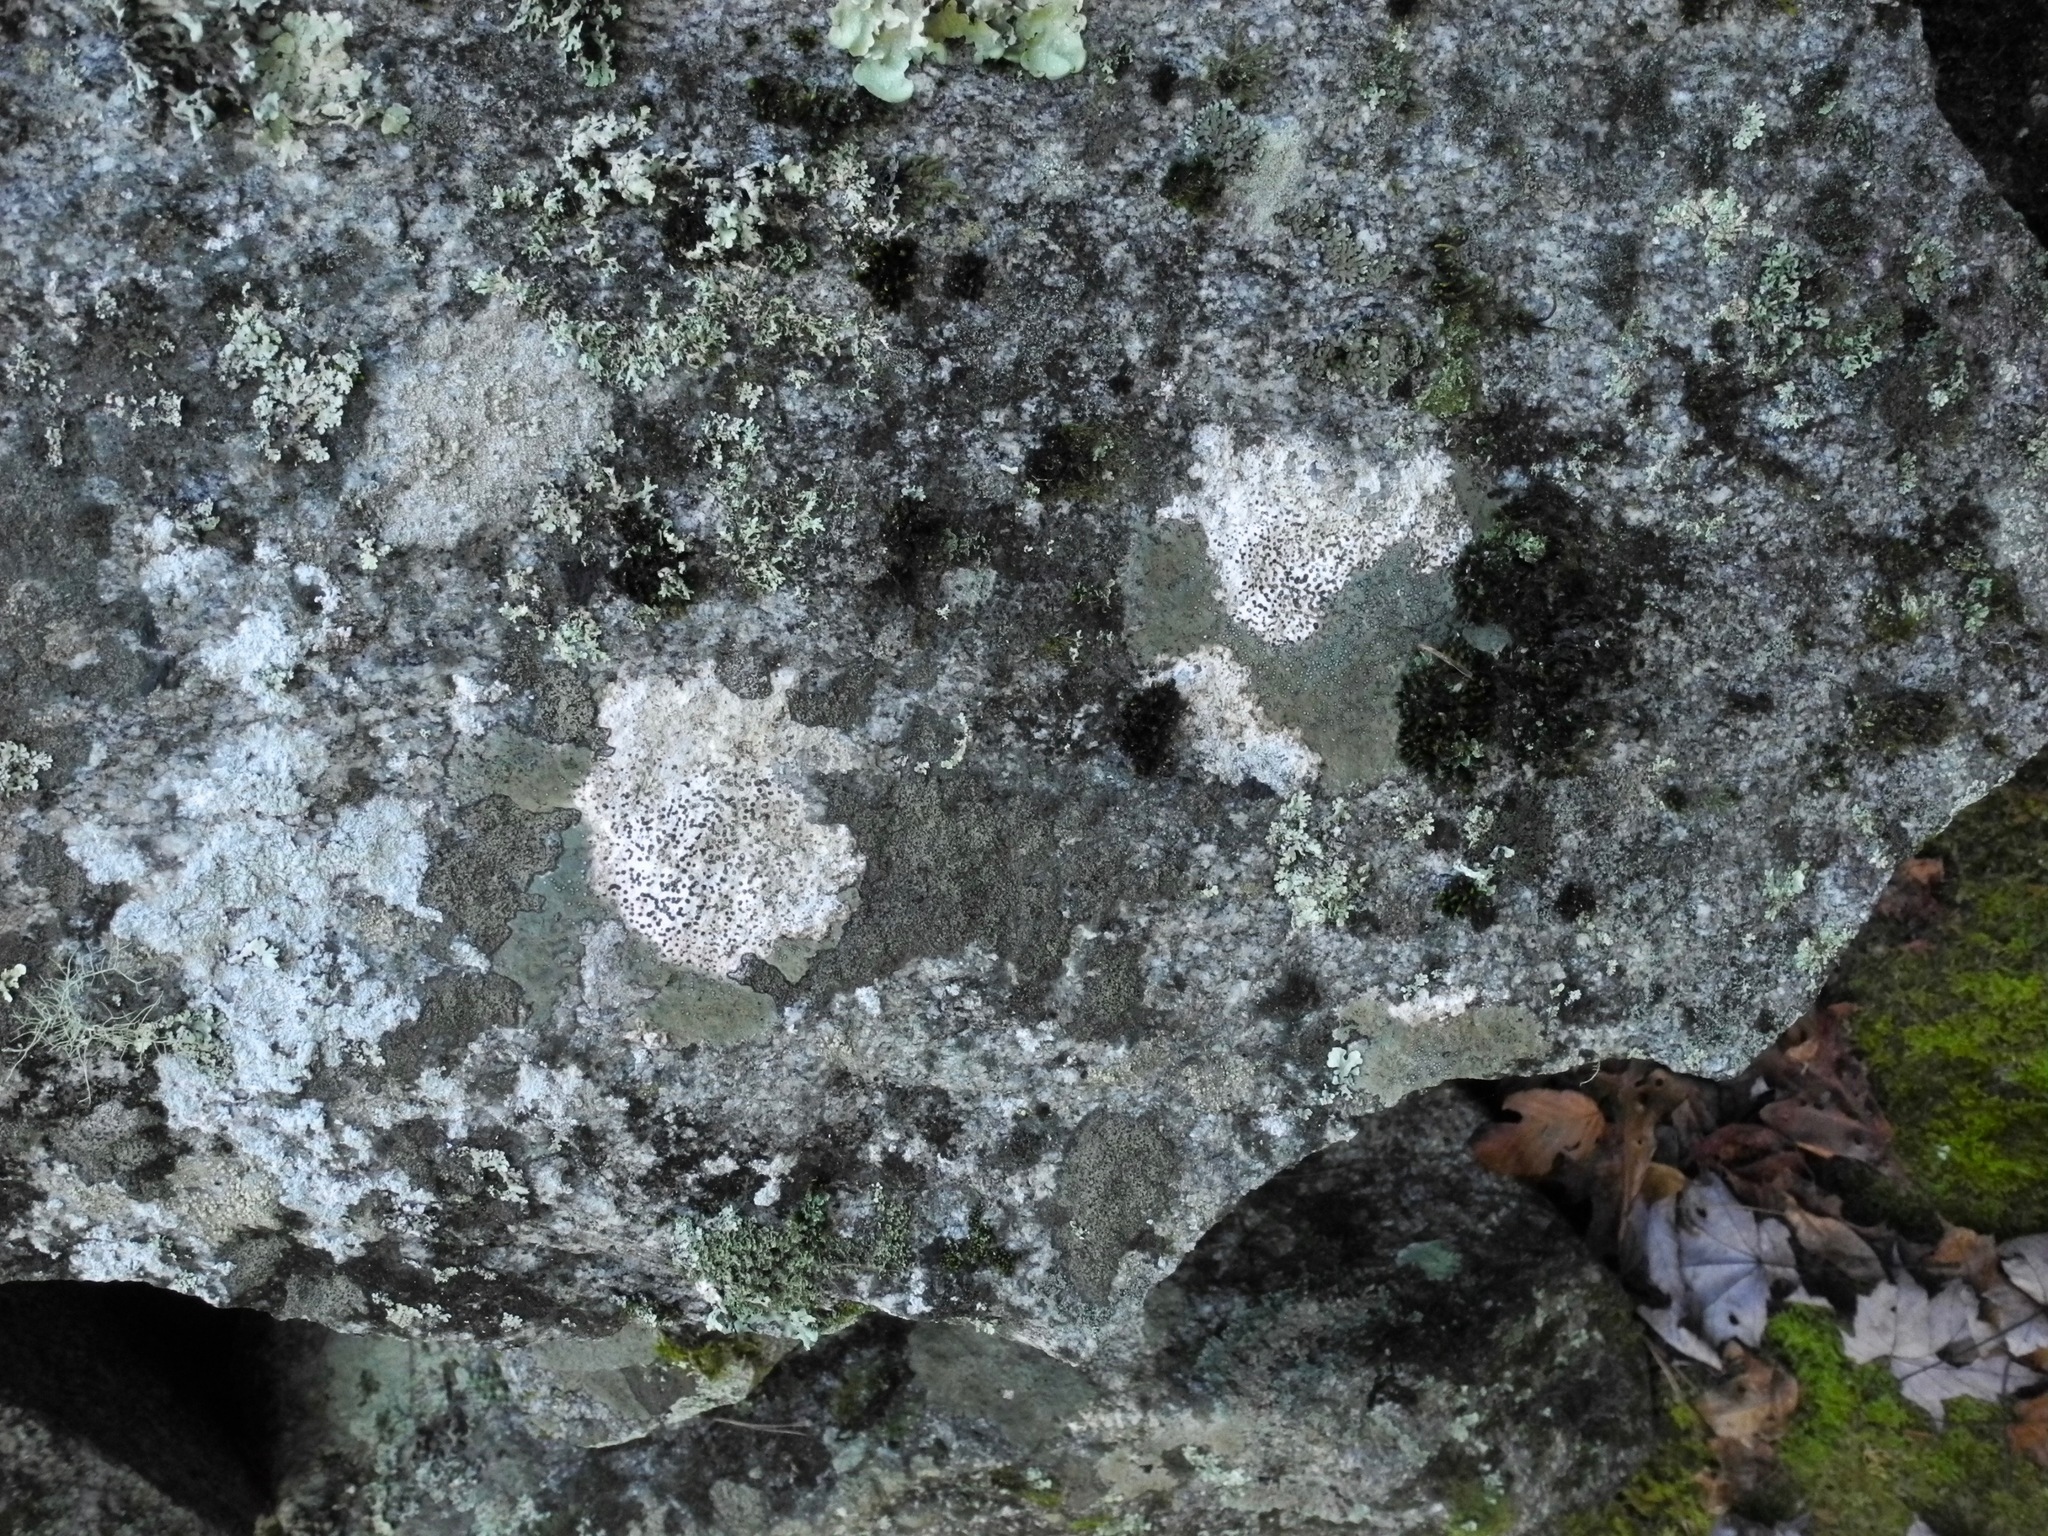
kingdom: Fungi
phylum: Ascomycota
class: Lecanoromycetes
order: Lecideales
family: Lecideaceae
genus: Porpidia
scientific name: Porpidia albocaerulescens
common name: Smokey-eyed boulder lichen
